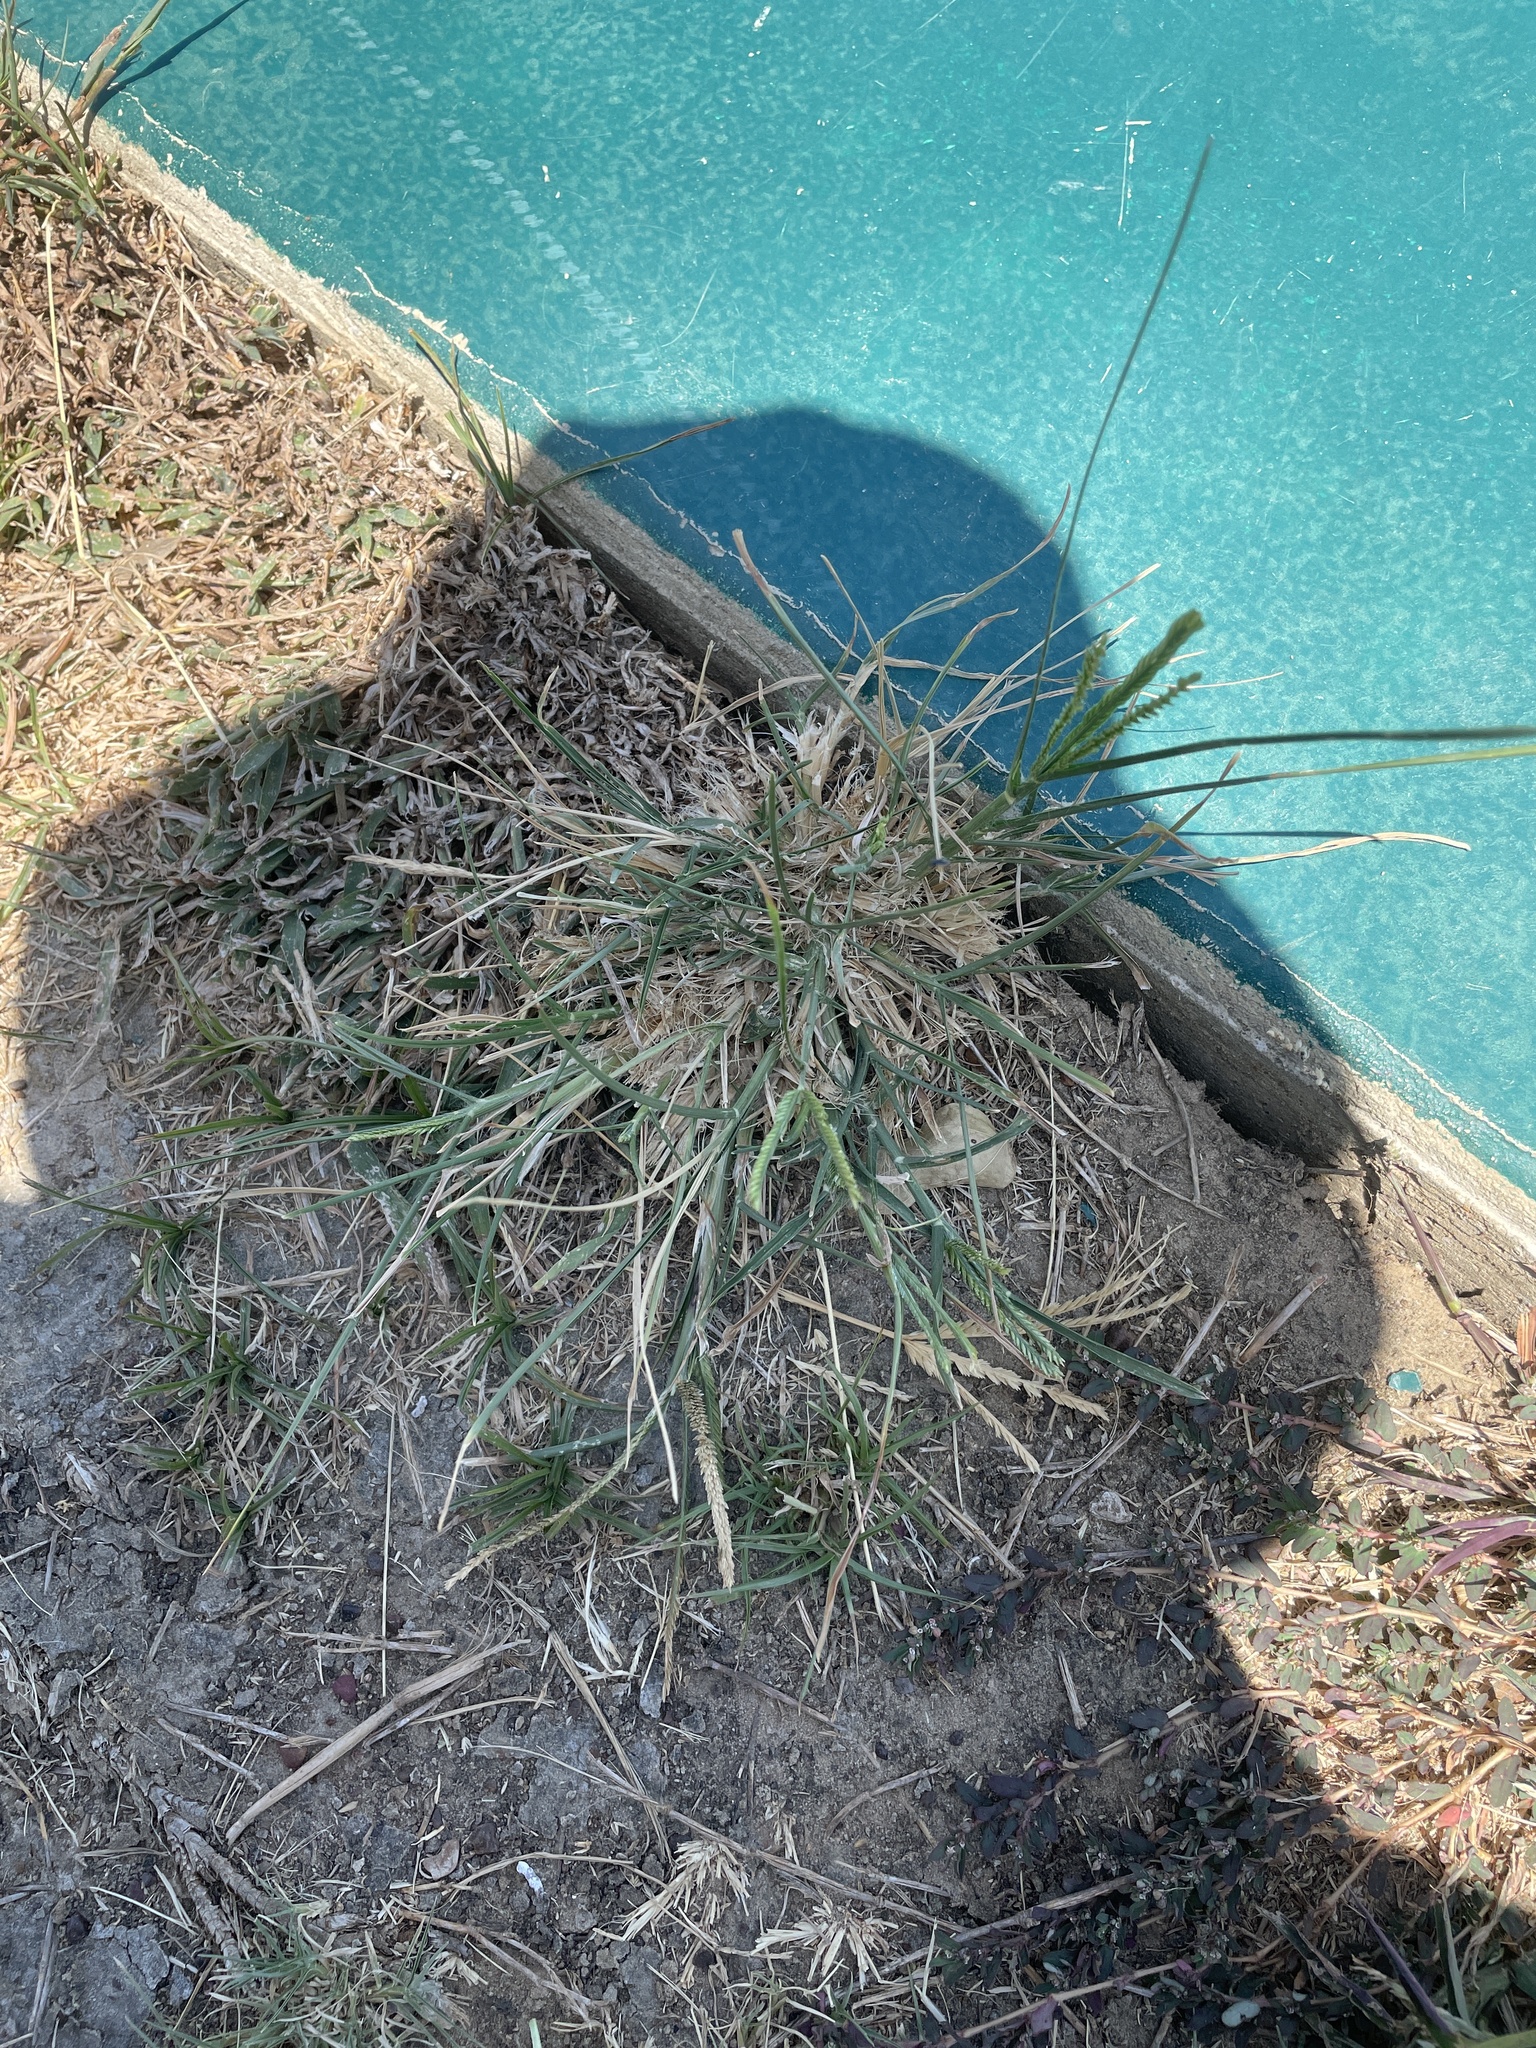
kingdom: Plantae
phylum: Tracheophyta
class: Liliopsida
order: Poales
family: Poaceae
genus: Eleusine
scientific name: Eleusine indica
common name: Yard-grass
